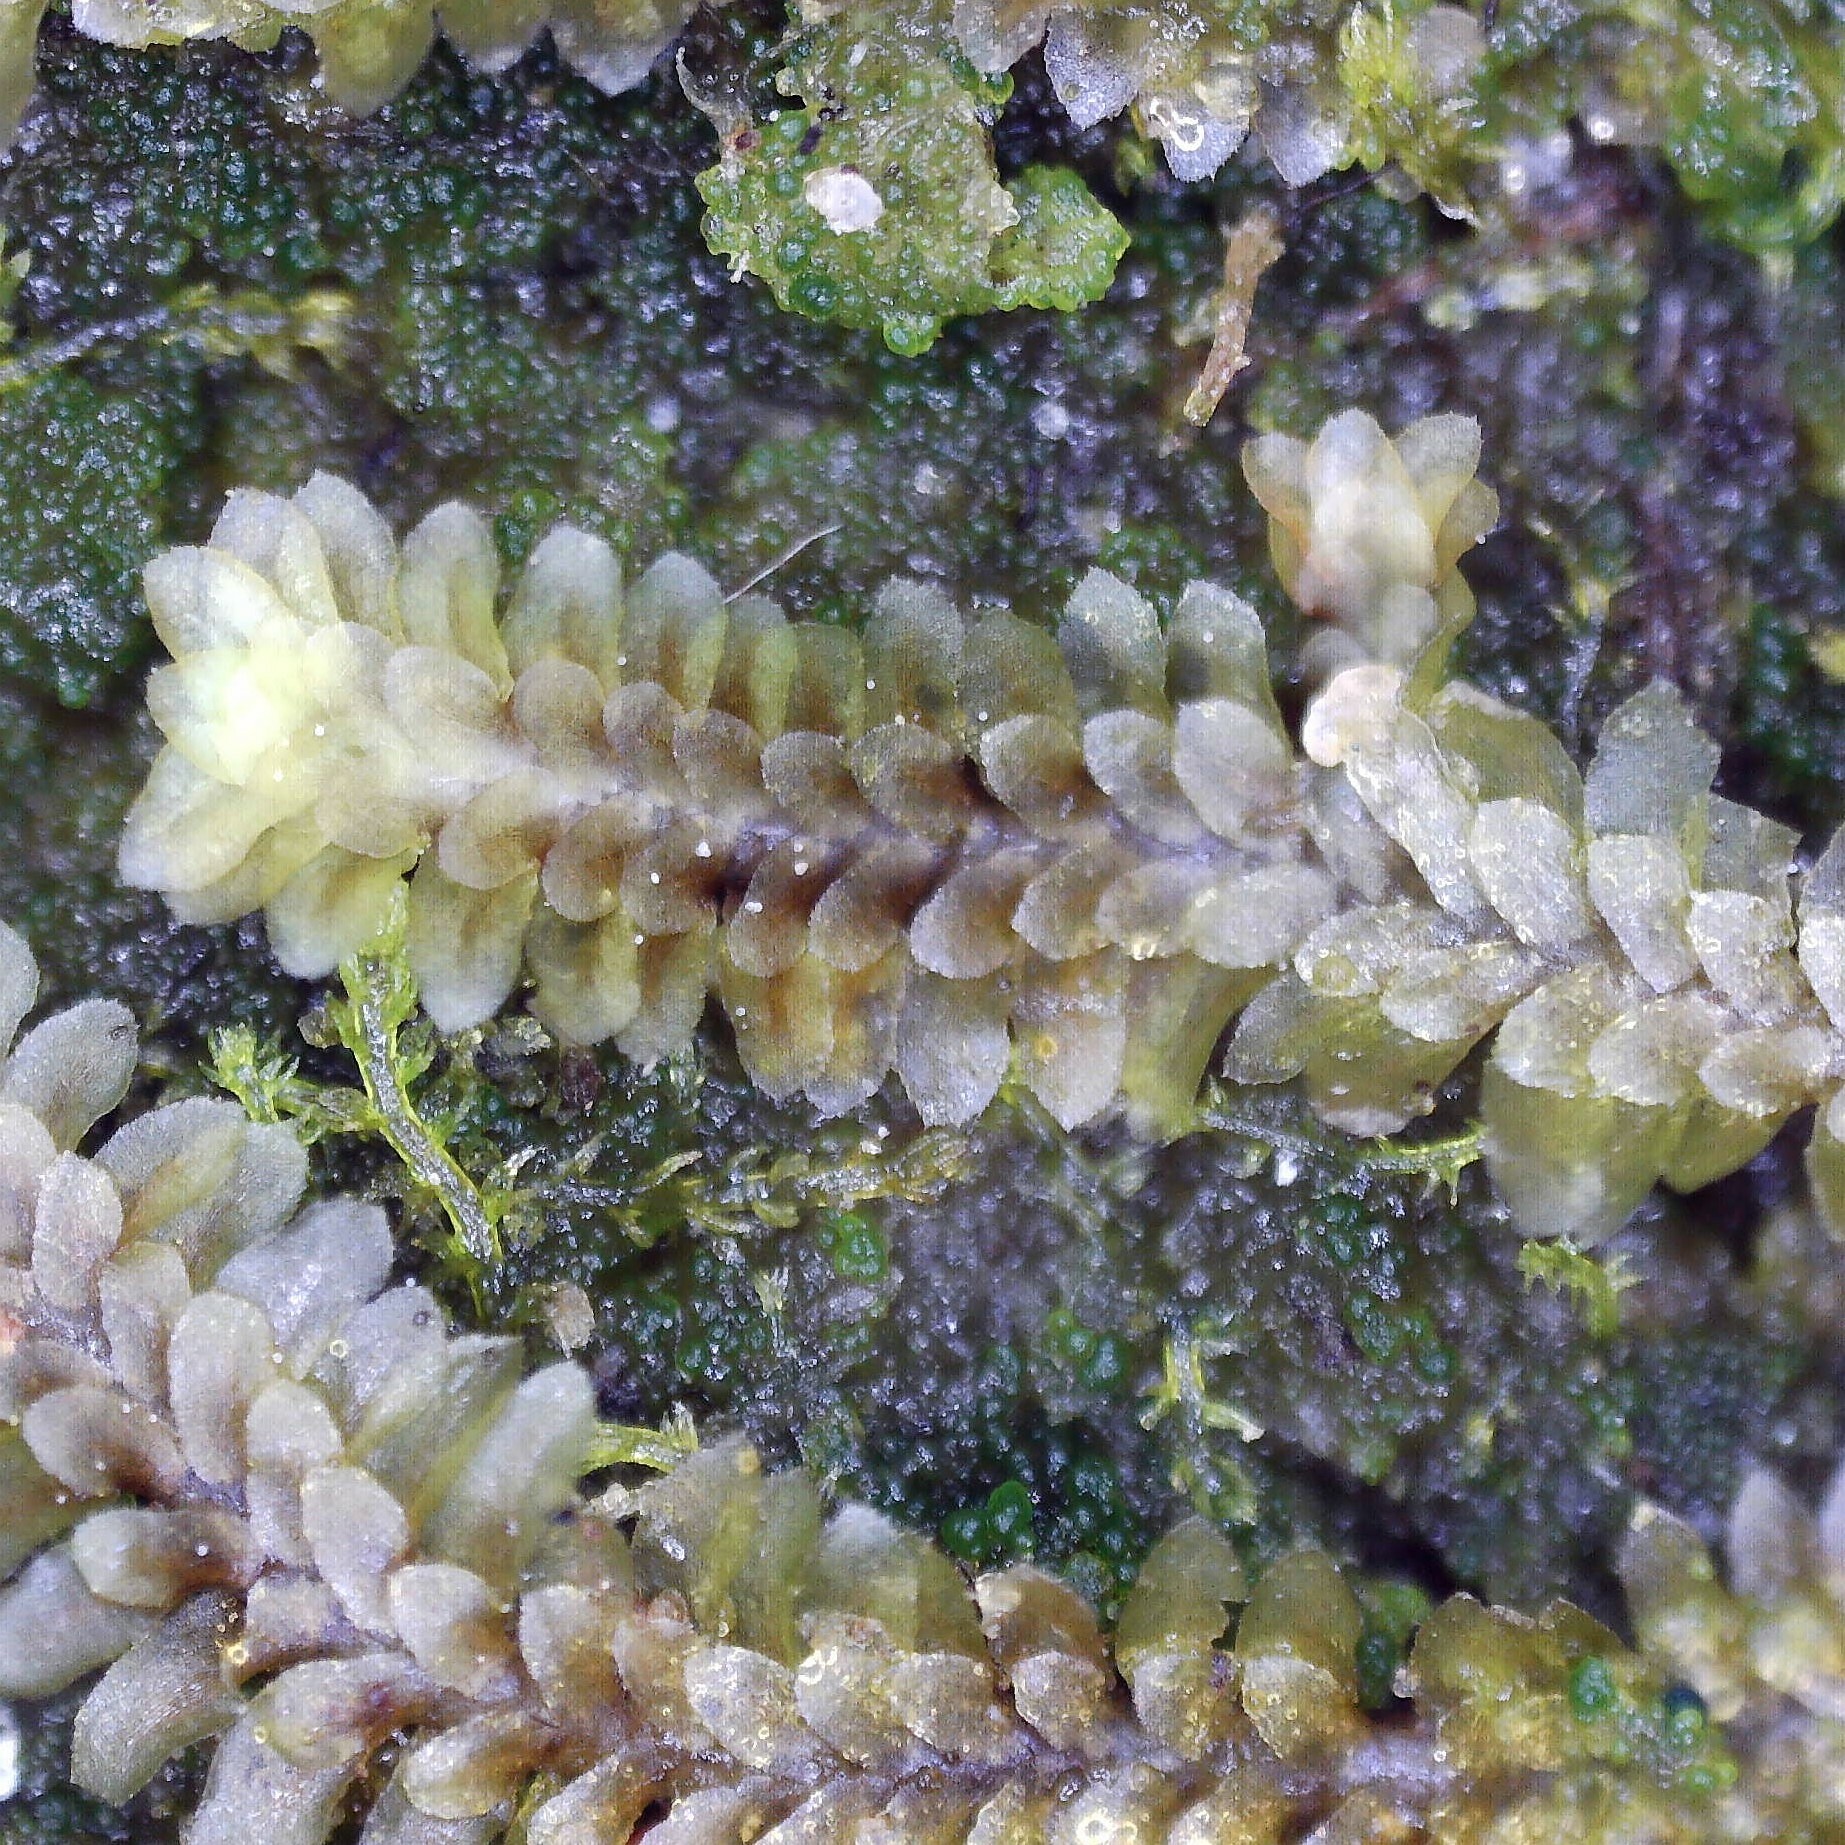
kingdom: Plantae
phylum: Marchantiophyta
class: Jungermanniopsida
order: Jungermanniales
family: Scapaniaceae
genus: Diplophyllum
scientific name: Diplophyllum albicans
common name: White earwort
